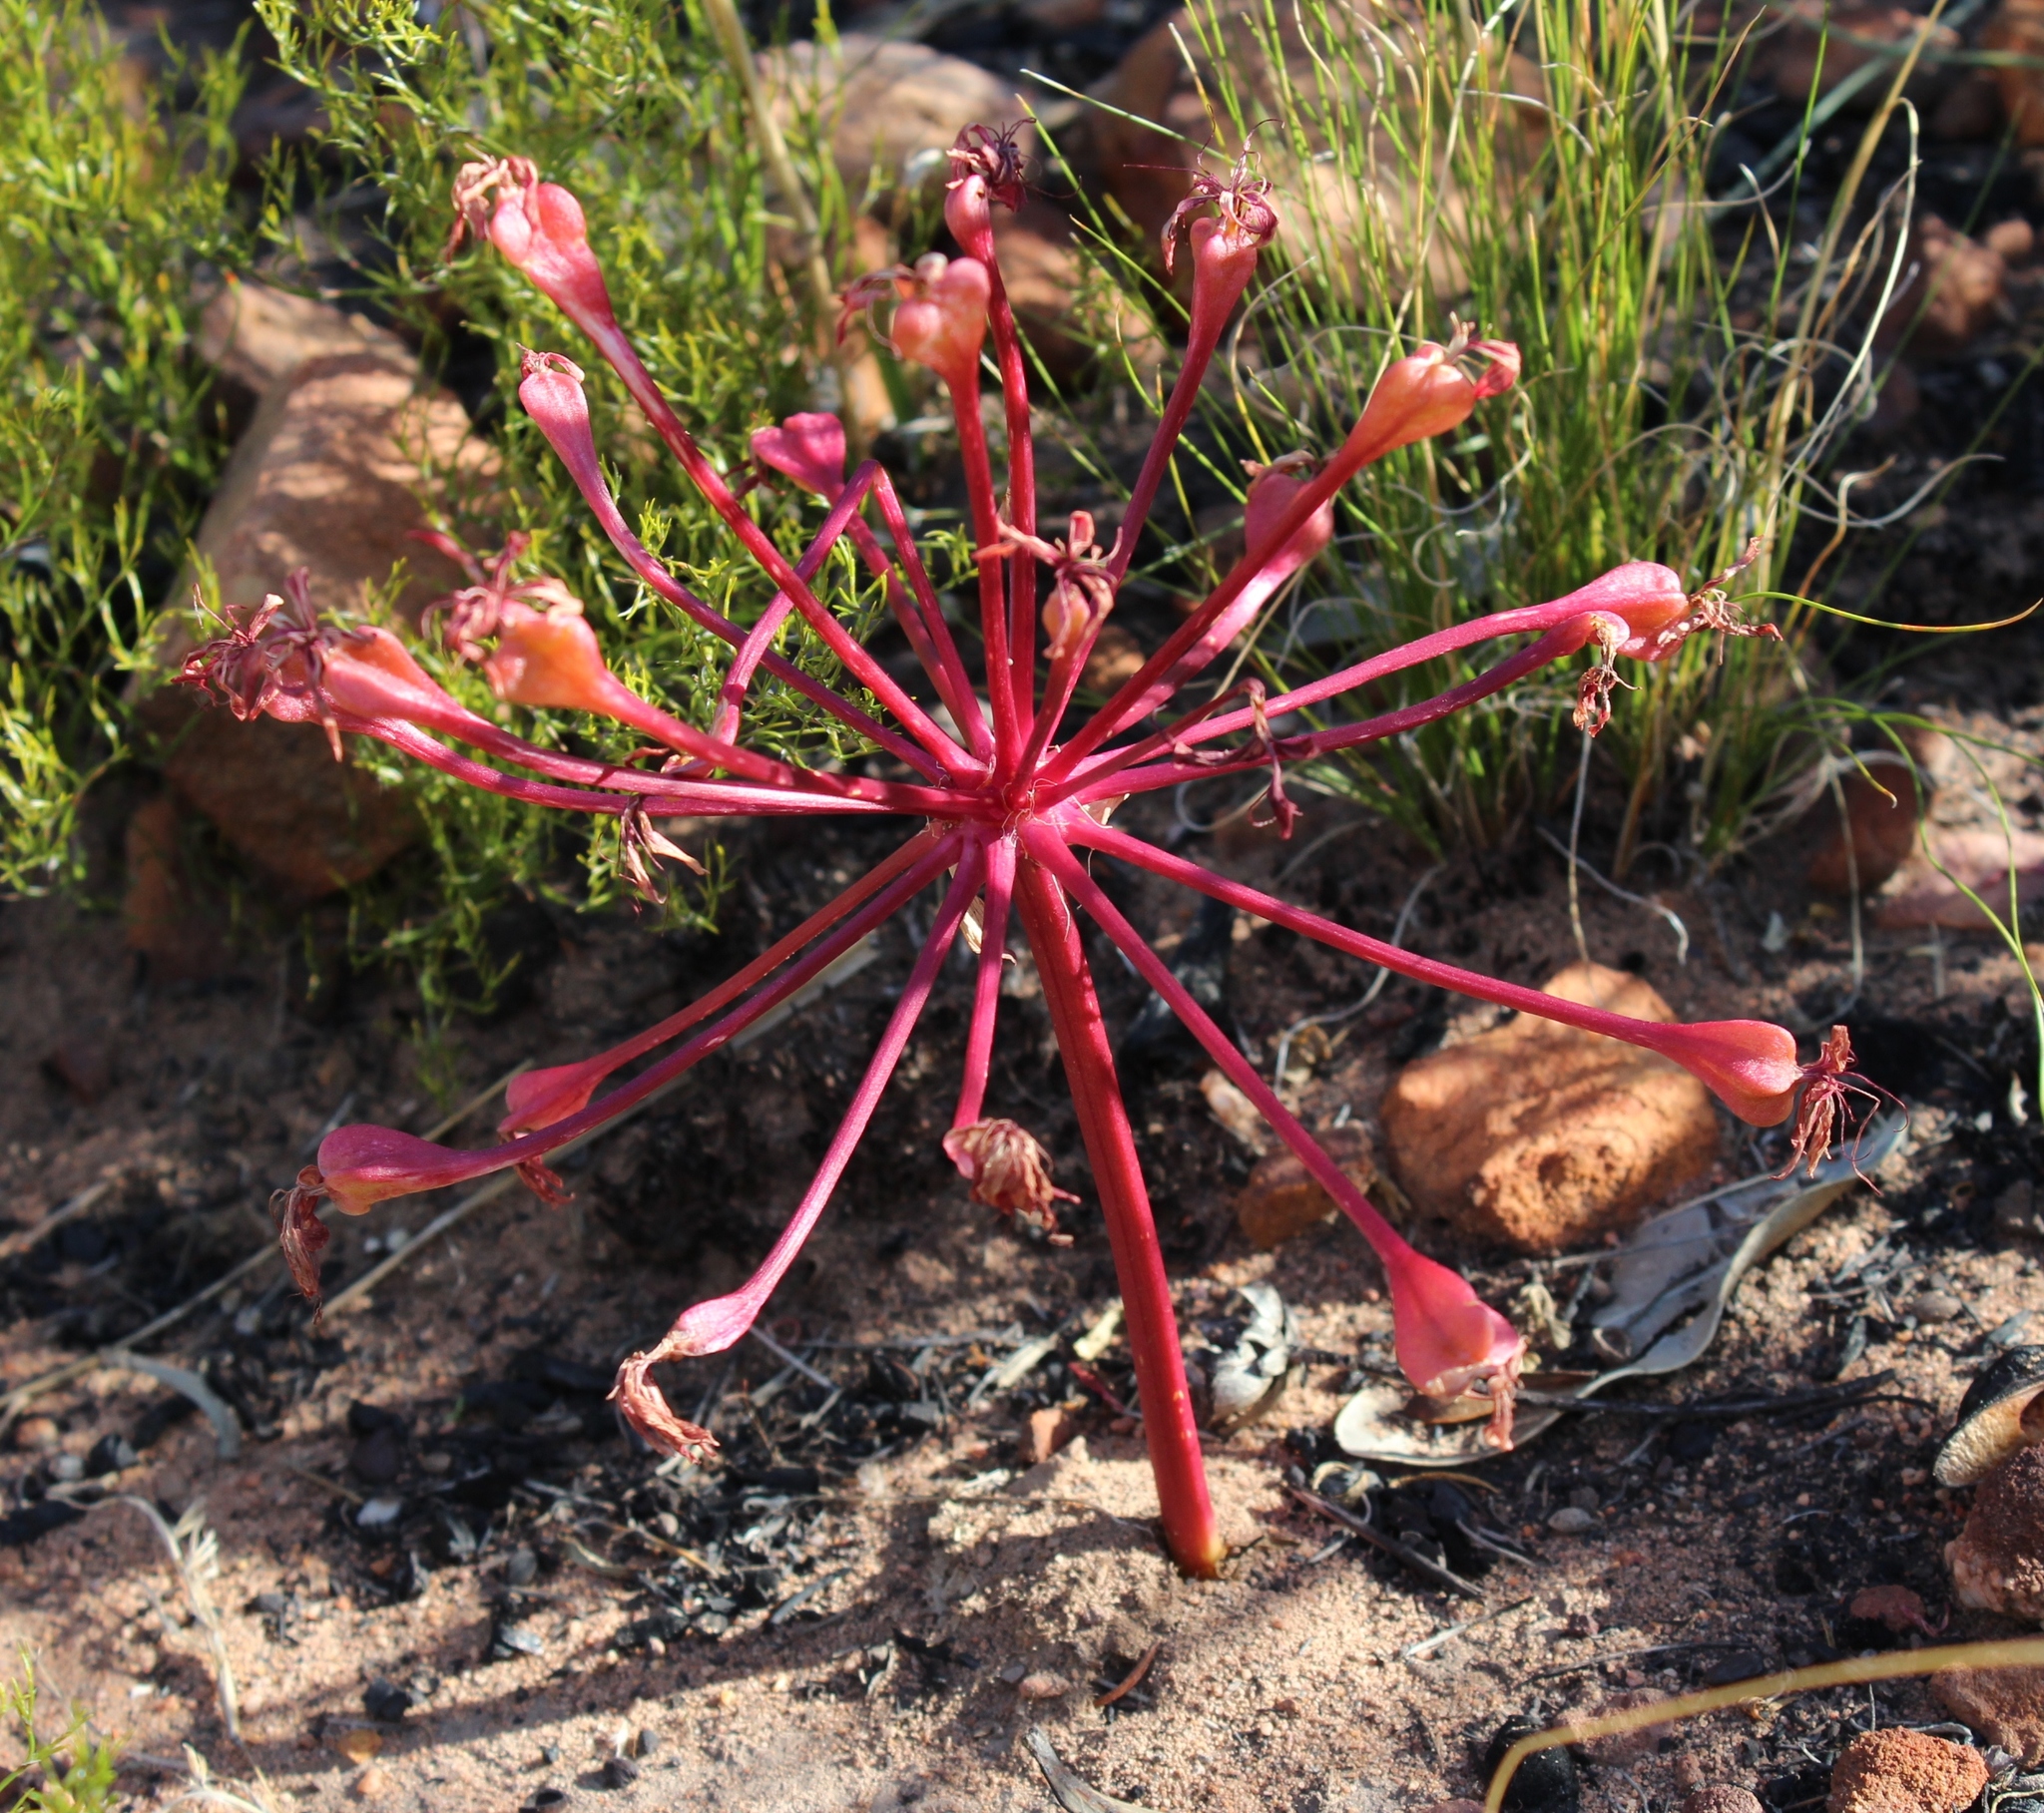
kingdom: Plantae
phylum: Tracheophyta
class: Liliopsida
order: Asparagales
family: Amaryllidaceae
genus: Brunsvigia
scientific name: Brunsvigia marginata
